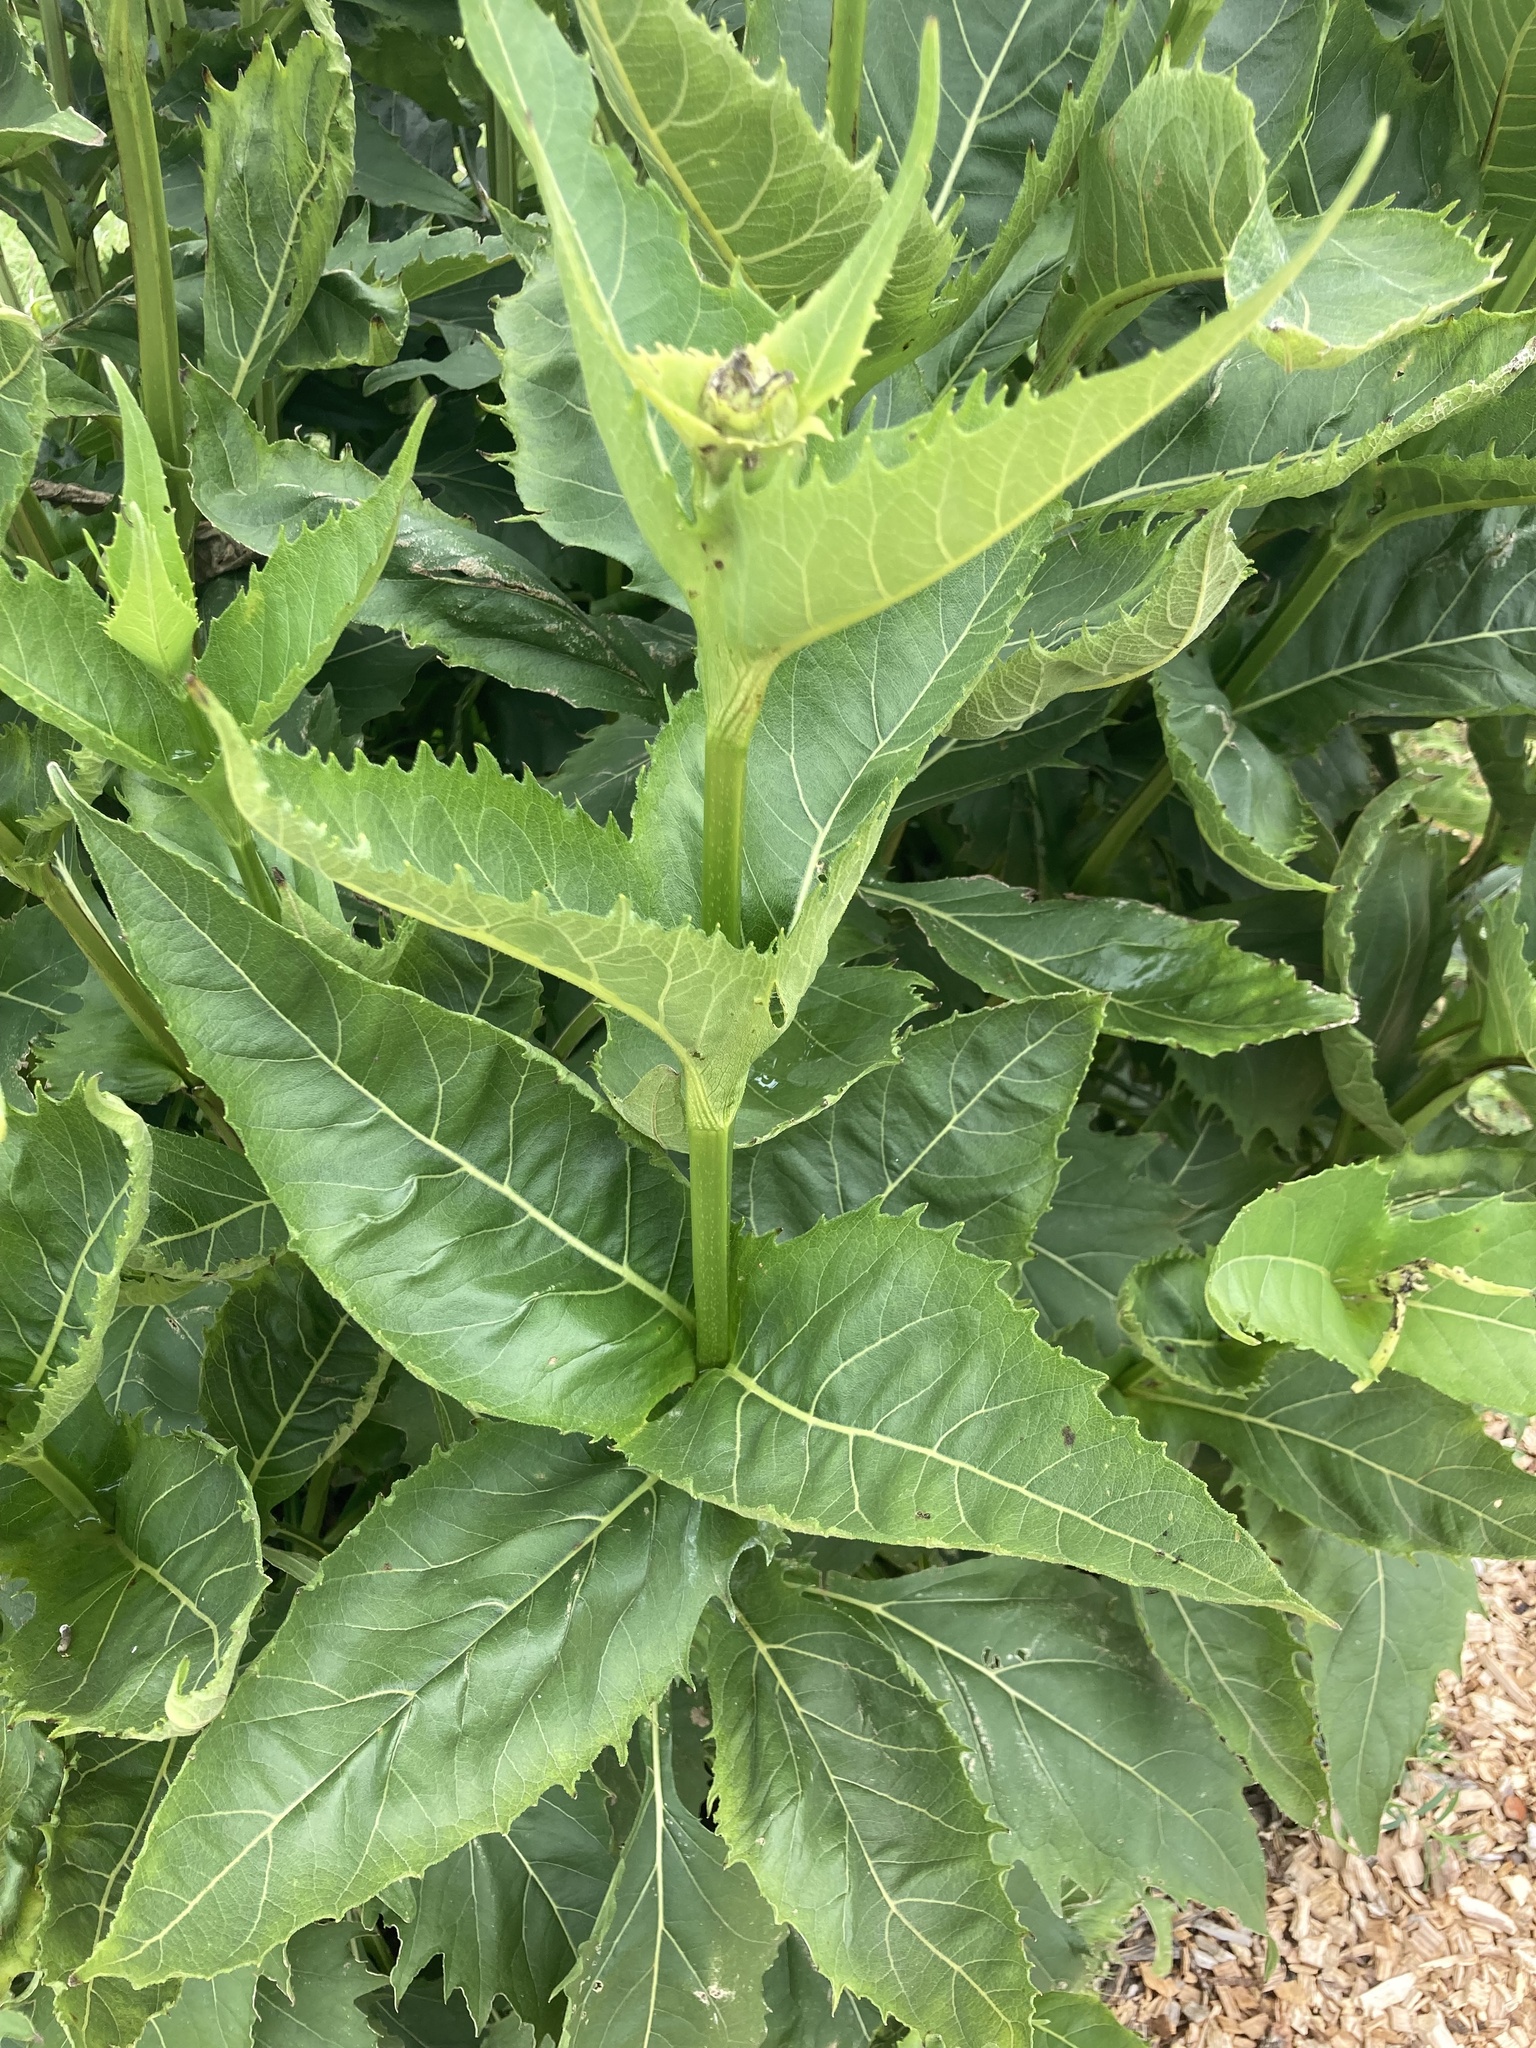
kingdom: Plantae
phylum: Tracheophyta
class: Magnoliopsida
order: Asterales
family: Asteraceae
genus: Silphium
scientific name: Silphium perfoliatum
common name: Cup-plant
